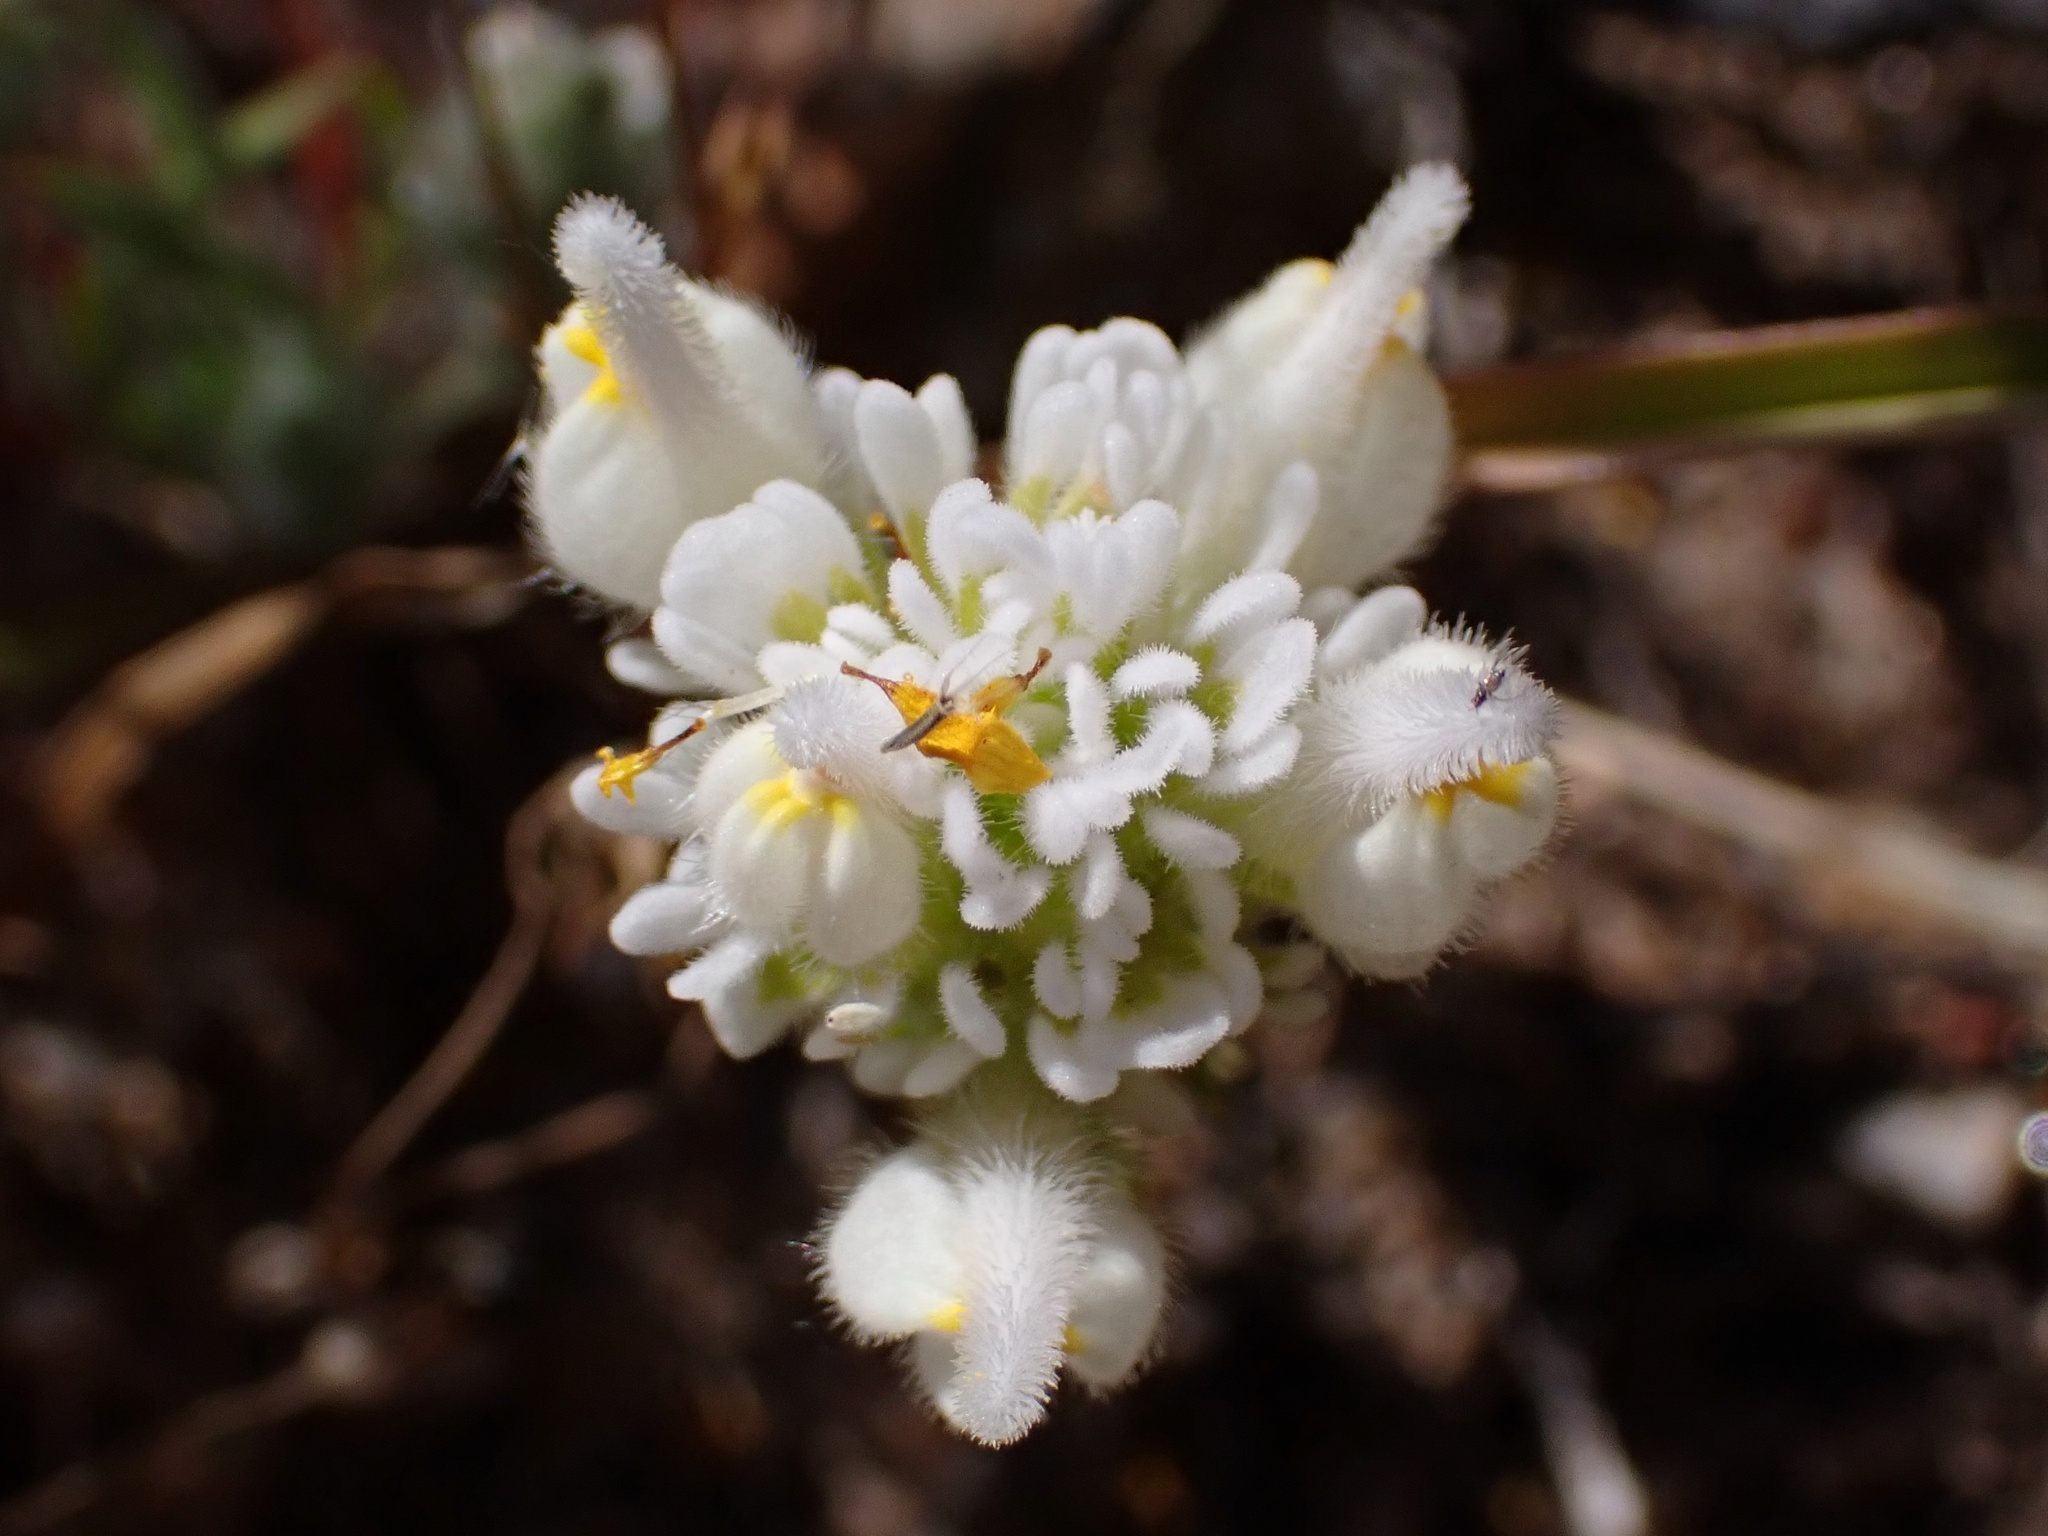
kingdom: Plantae
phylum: Tracheophyta
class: Magnoliopsida
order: Lamiales
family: Orobanchaceae
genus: Castilleja
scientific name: Castilleja exserta
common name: Purple owl-clover
